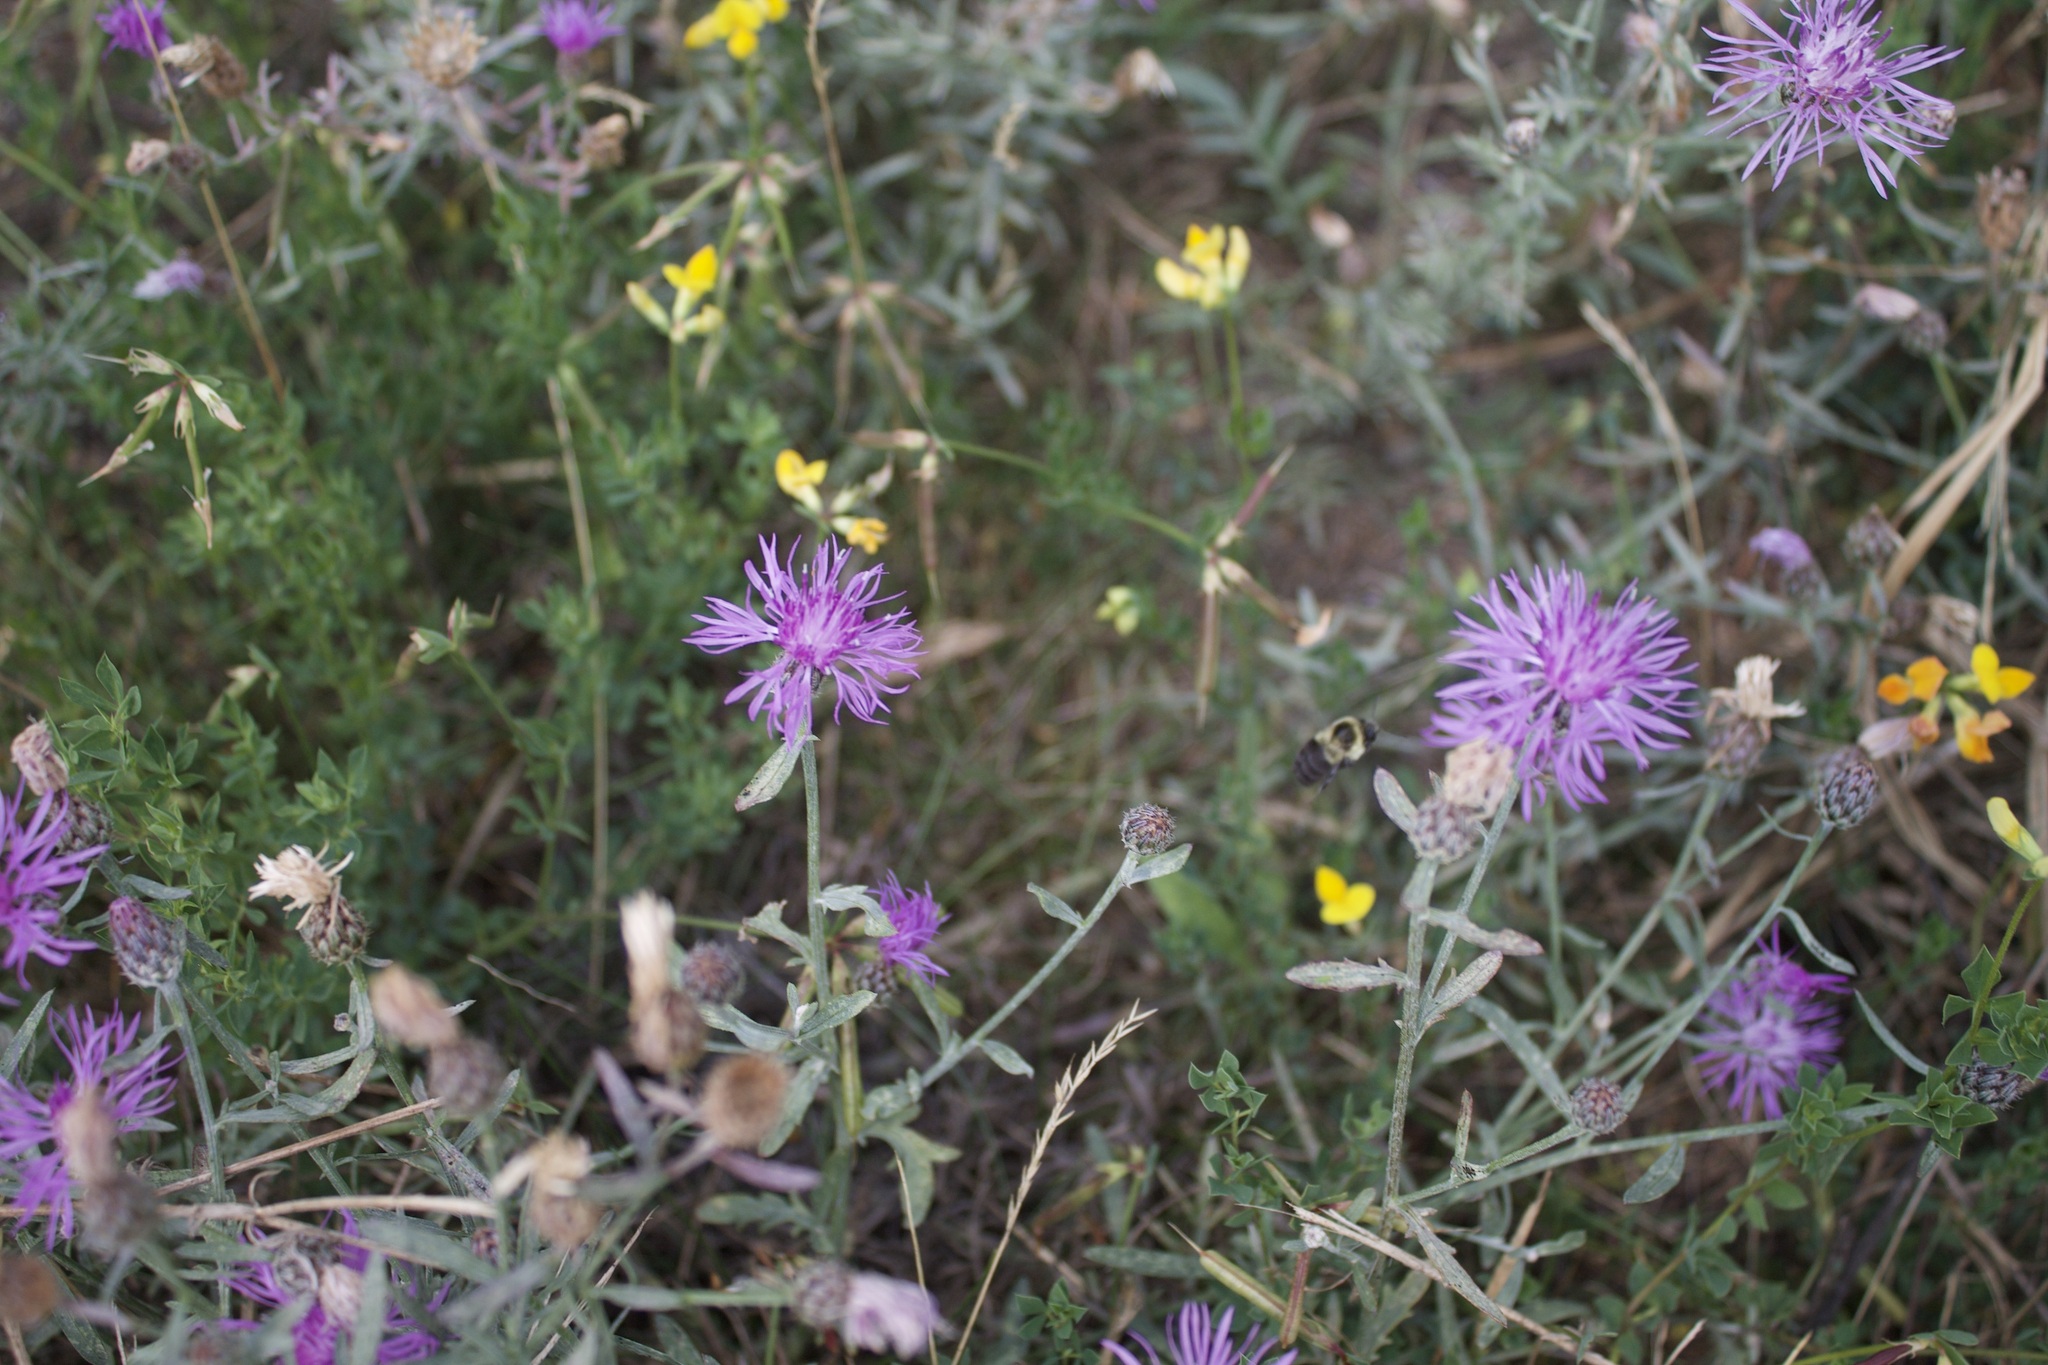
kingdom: Animalia
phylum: Arthropoda
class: Insecta
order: Hymenoptera
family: Apidae
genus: Bombus
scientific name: Bombus impatiens
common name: Common eastern bumble bee
